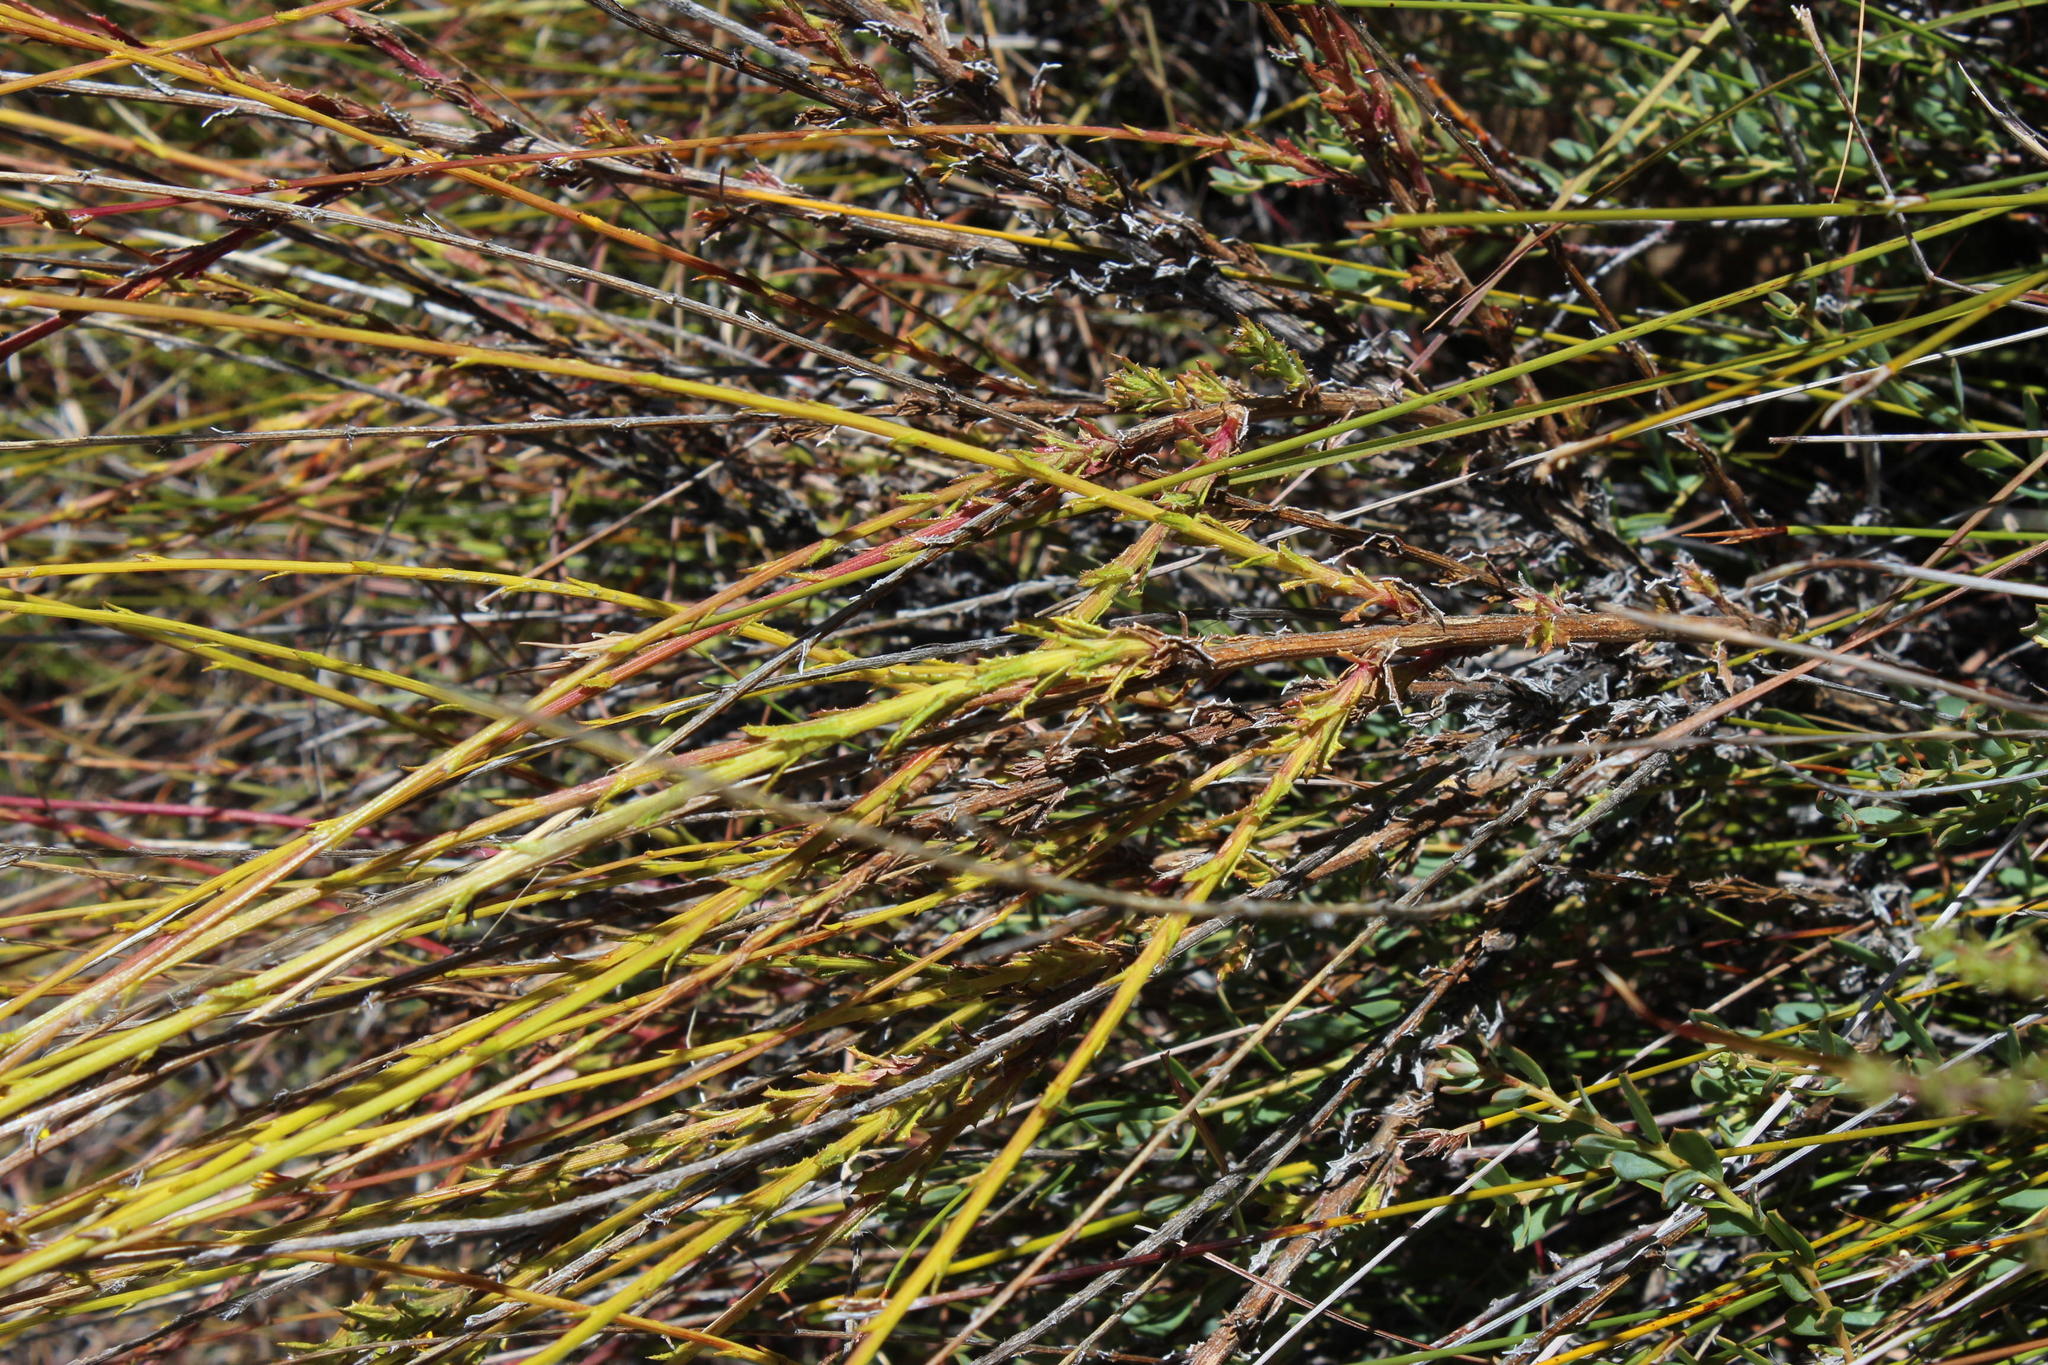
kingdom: Plantae
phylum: Tracheophyta
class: Magnoliopsida
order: Asterales
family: Asteraceae
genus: Senecio
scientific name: Senecio pubigerus
